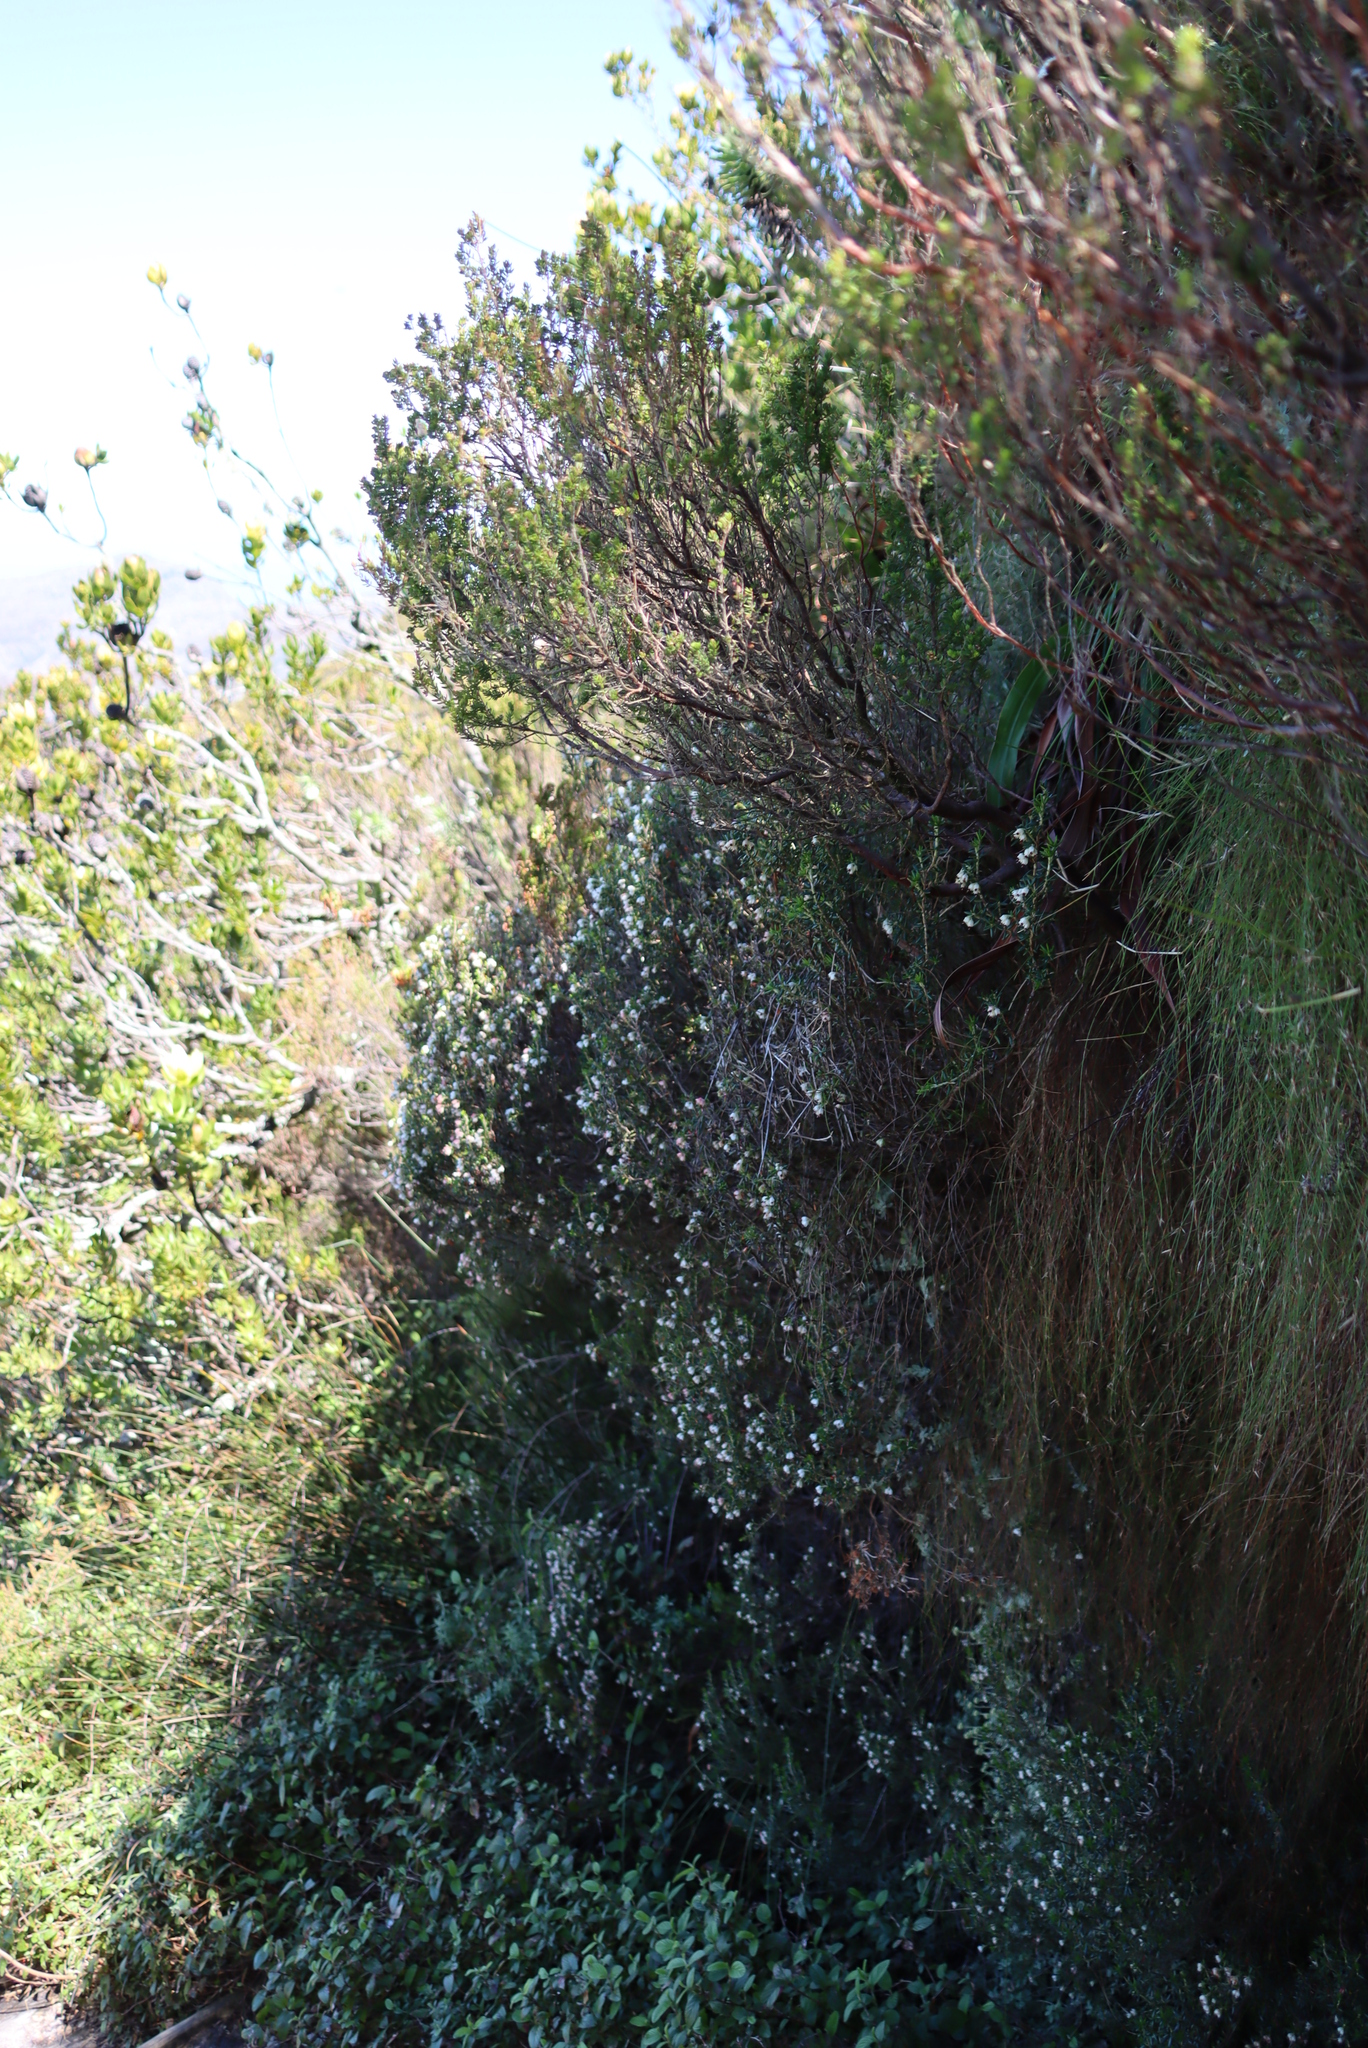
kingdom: Plantae
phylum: Tracheophyta
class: Magnoliopsida
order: Ericales
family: Ericaceae
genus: Erica
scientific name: Erica petiolaris
